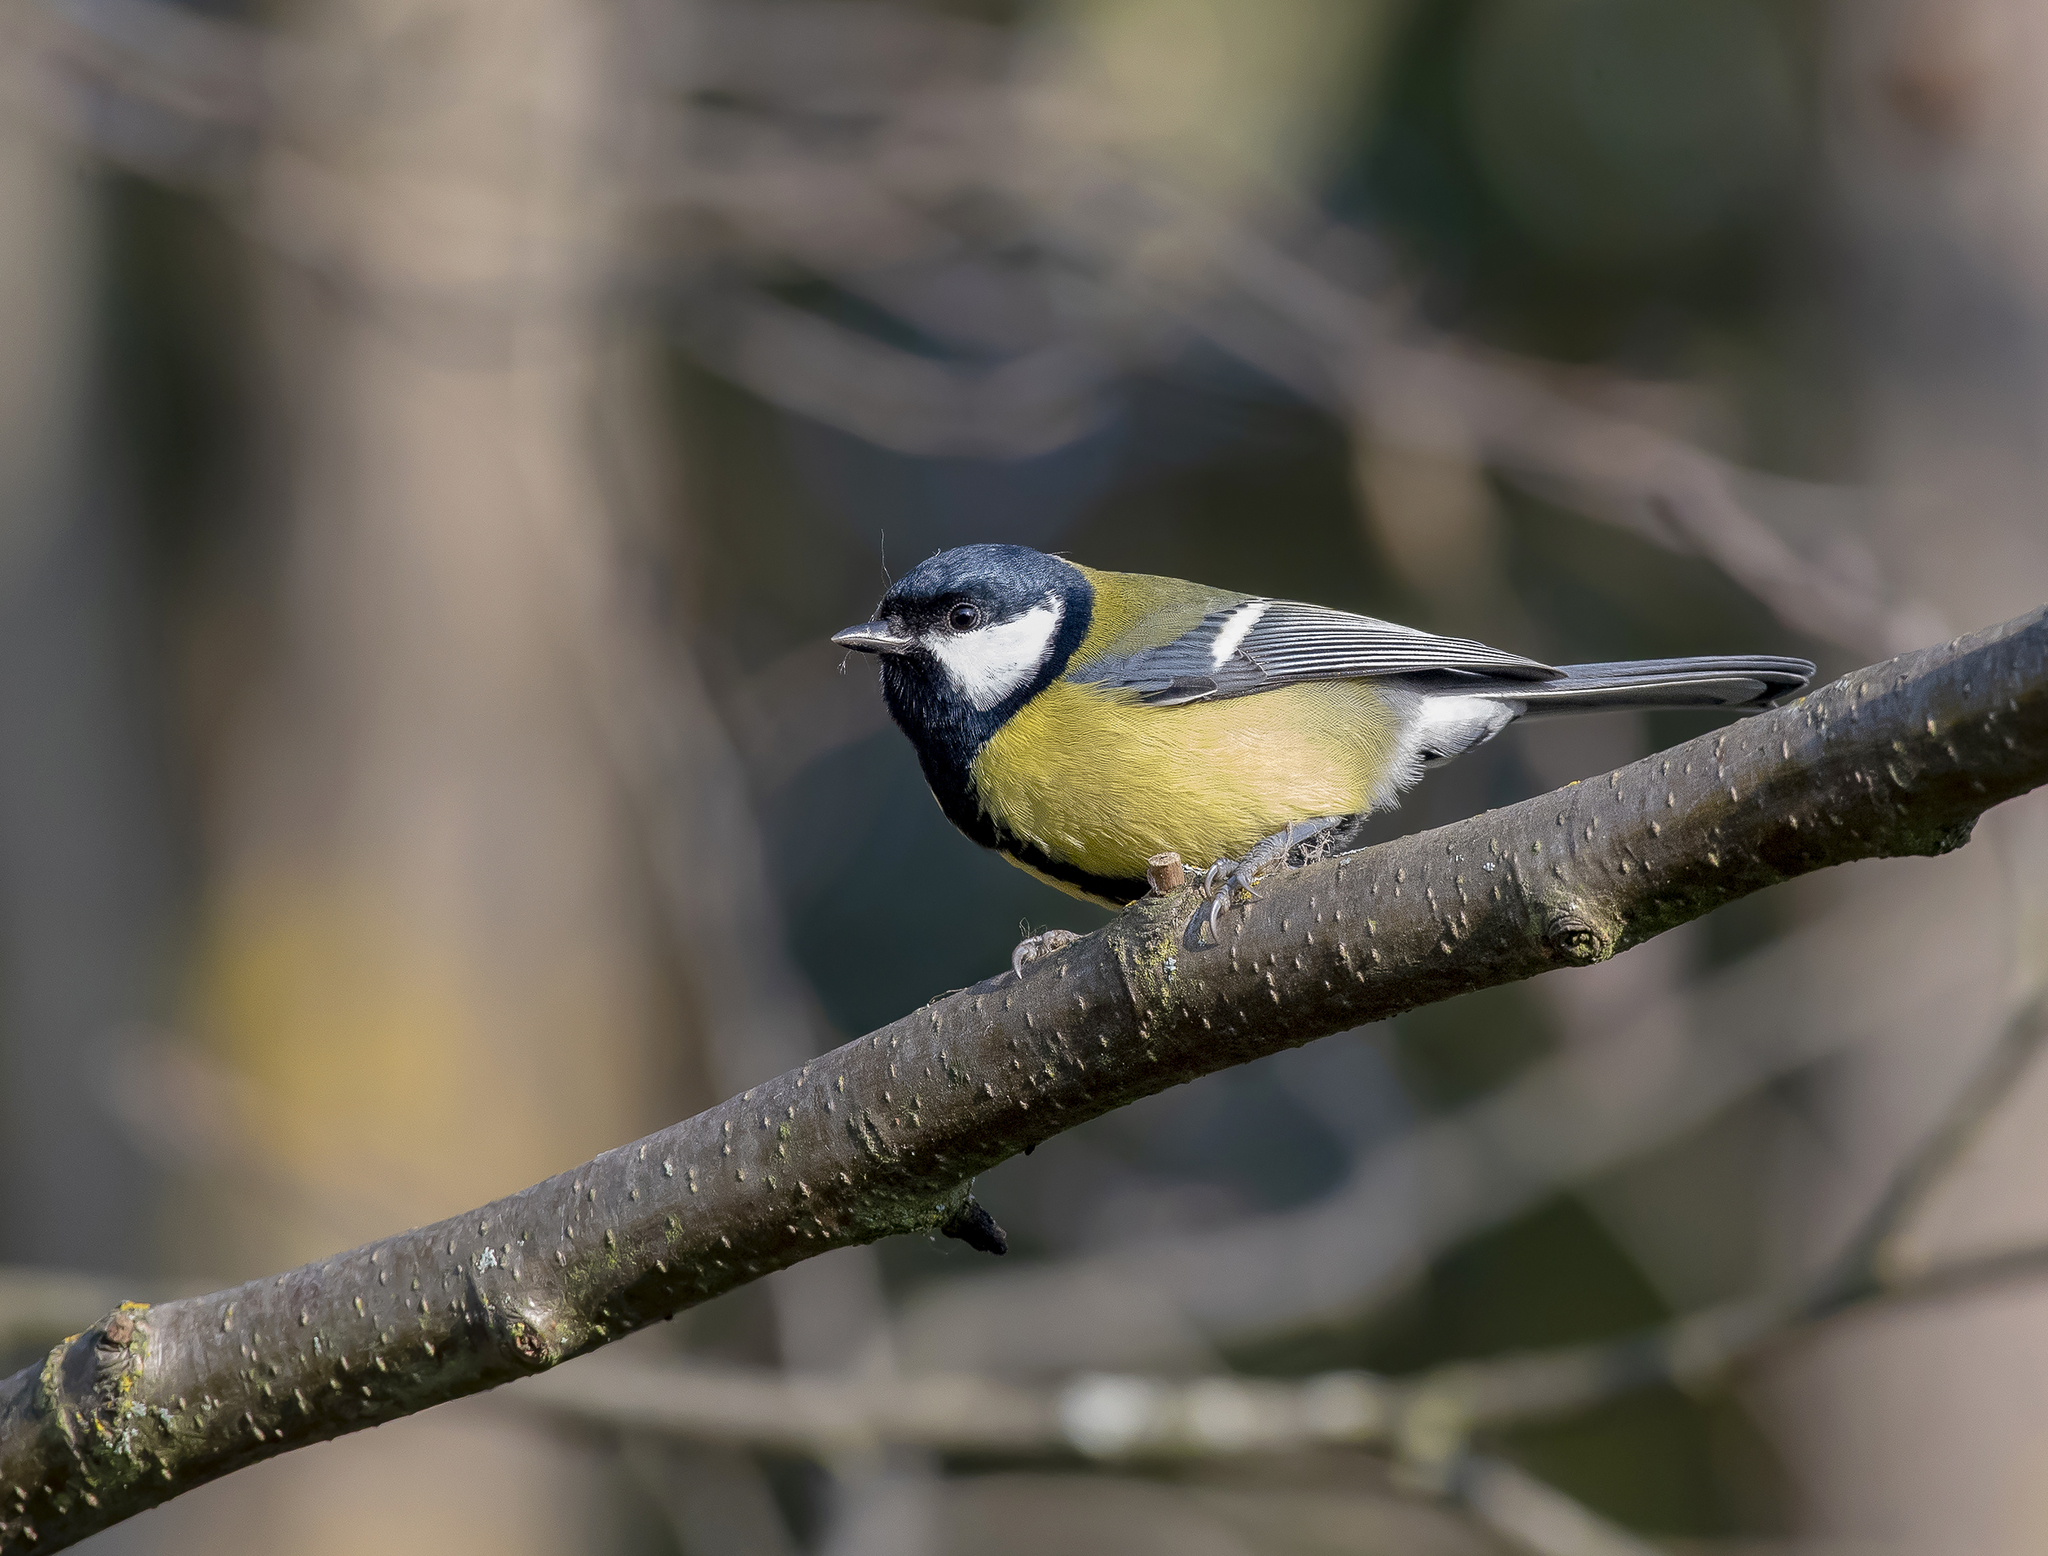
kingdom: Animalia
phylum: Chordata
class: Aves
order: Passeriformes
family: Paridae
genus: Parus
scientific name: Parus major
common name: Great tit
